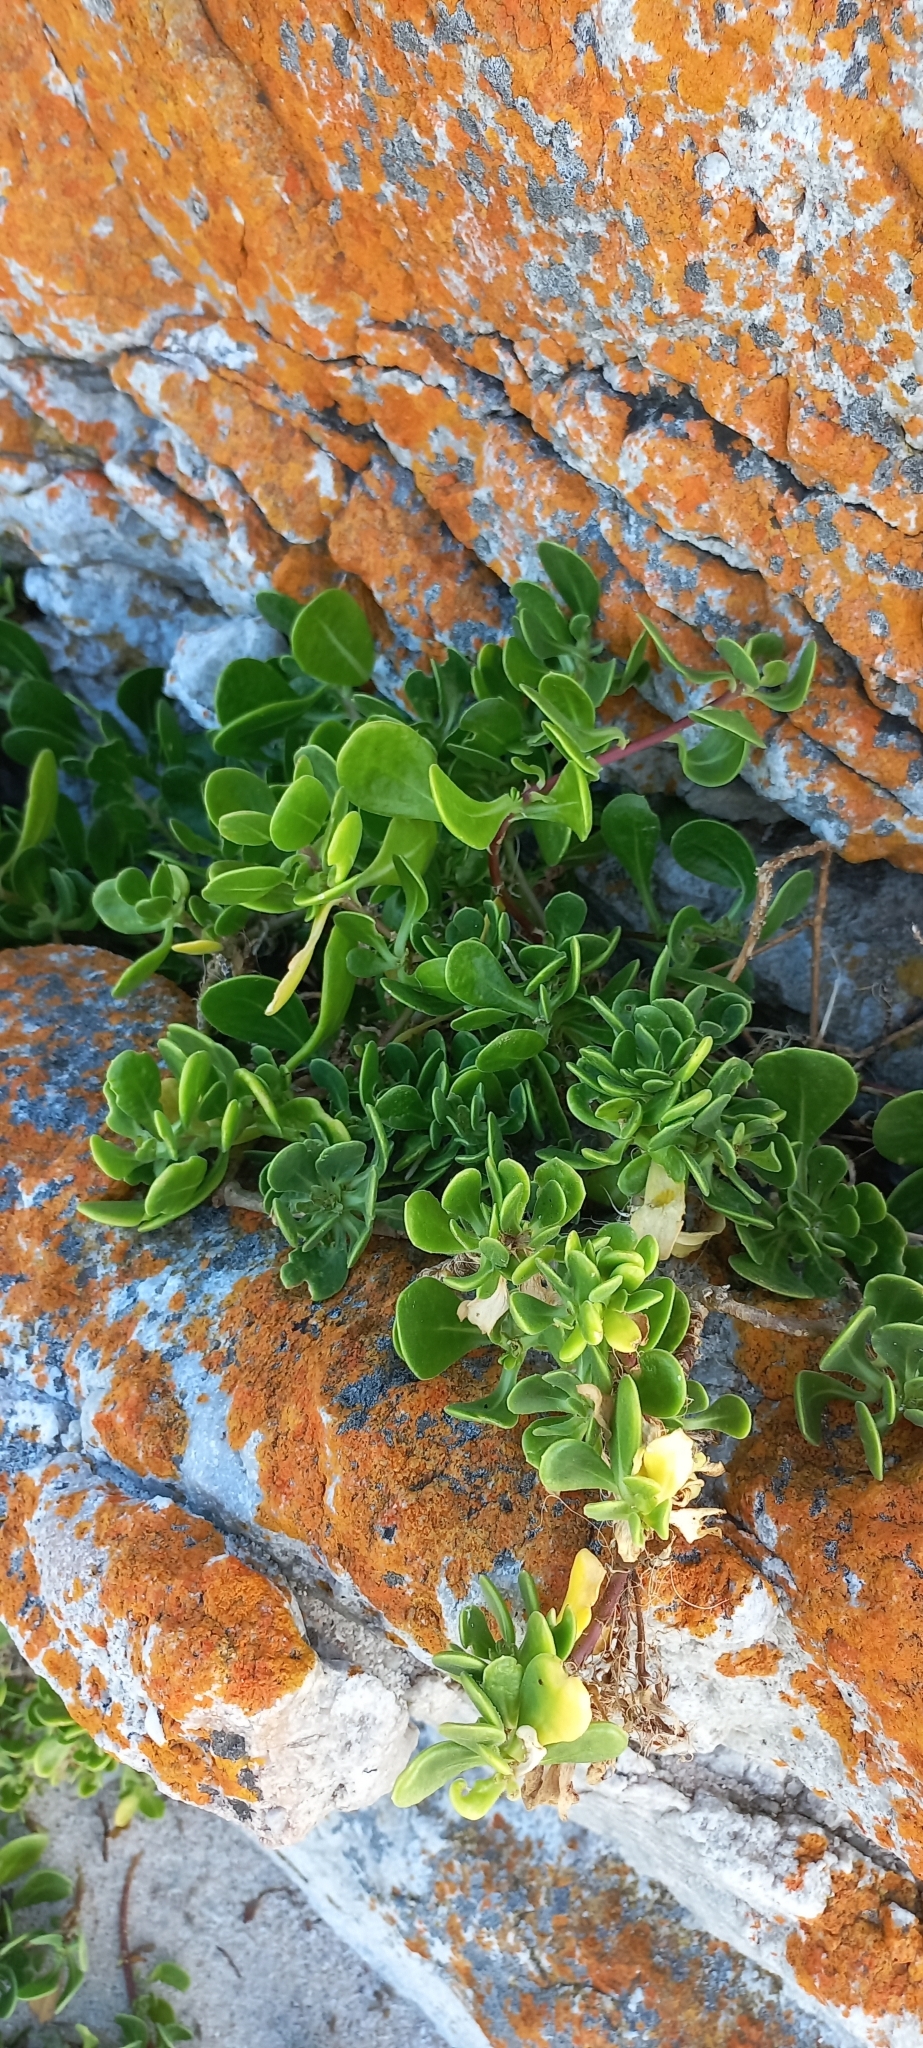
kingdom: Plantae
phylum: Tracheophyta
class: Magnoliopsida
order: Asterales
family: Asteraceae
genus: Dimorphotheca
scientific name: Dimorphotheca fruticosa
